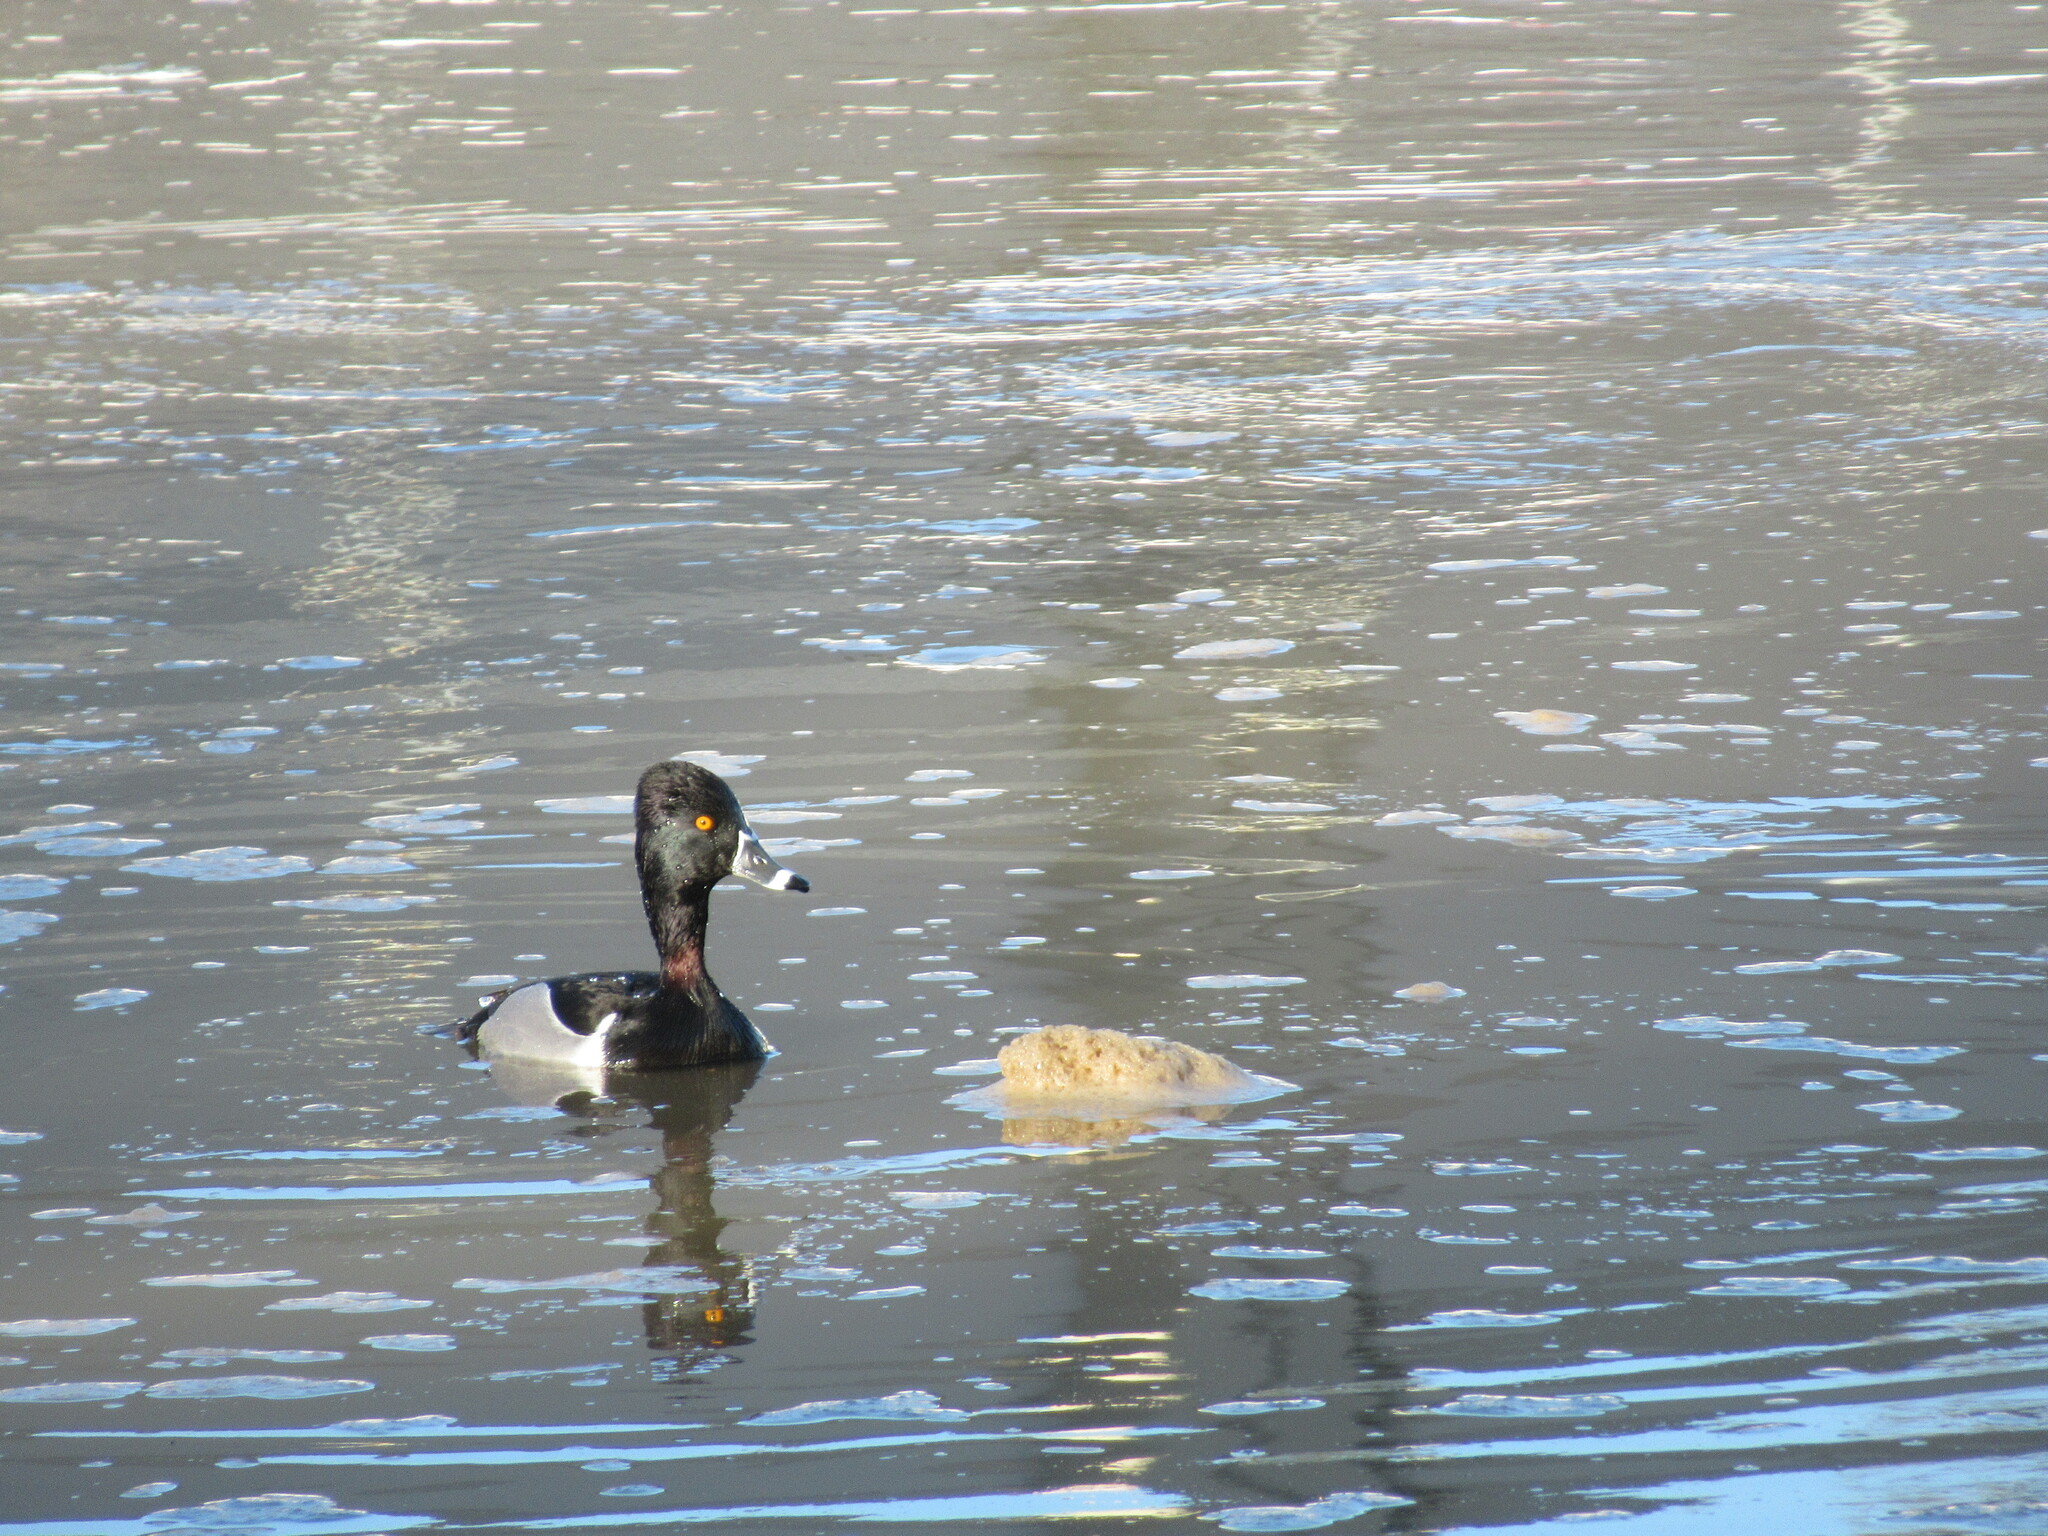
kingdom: Animalia
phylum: Chordata
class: Aves
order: Anseriformes
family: Anatidae
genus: Aythya
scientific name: Aythya collaris
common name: Ring-necked duck
